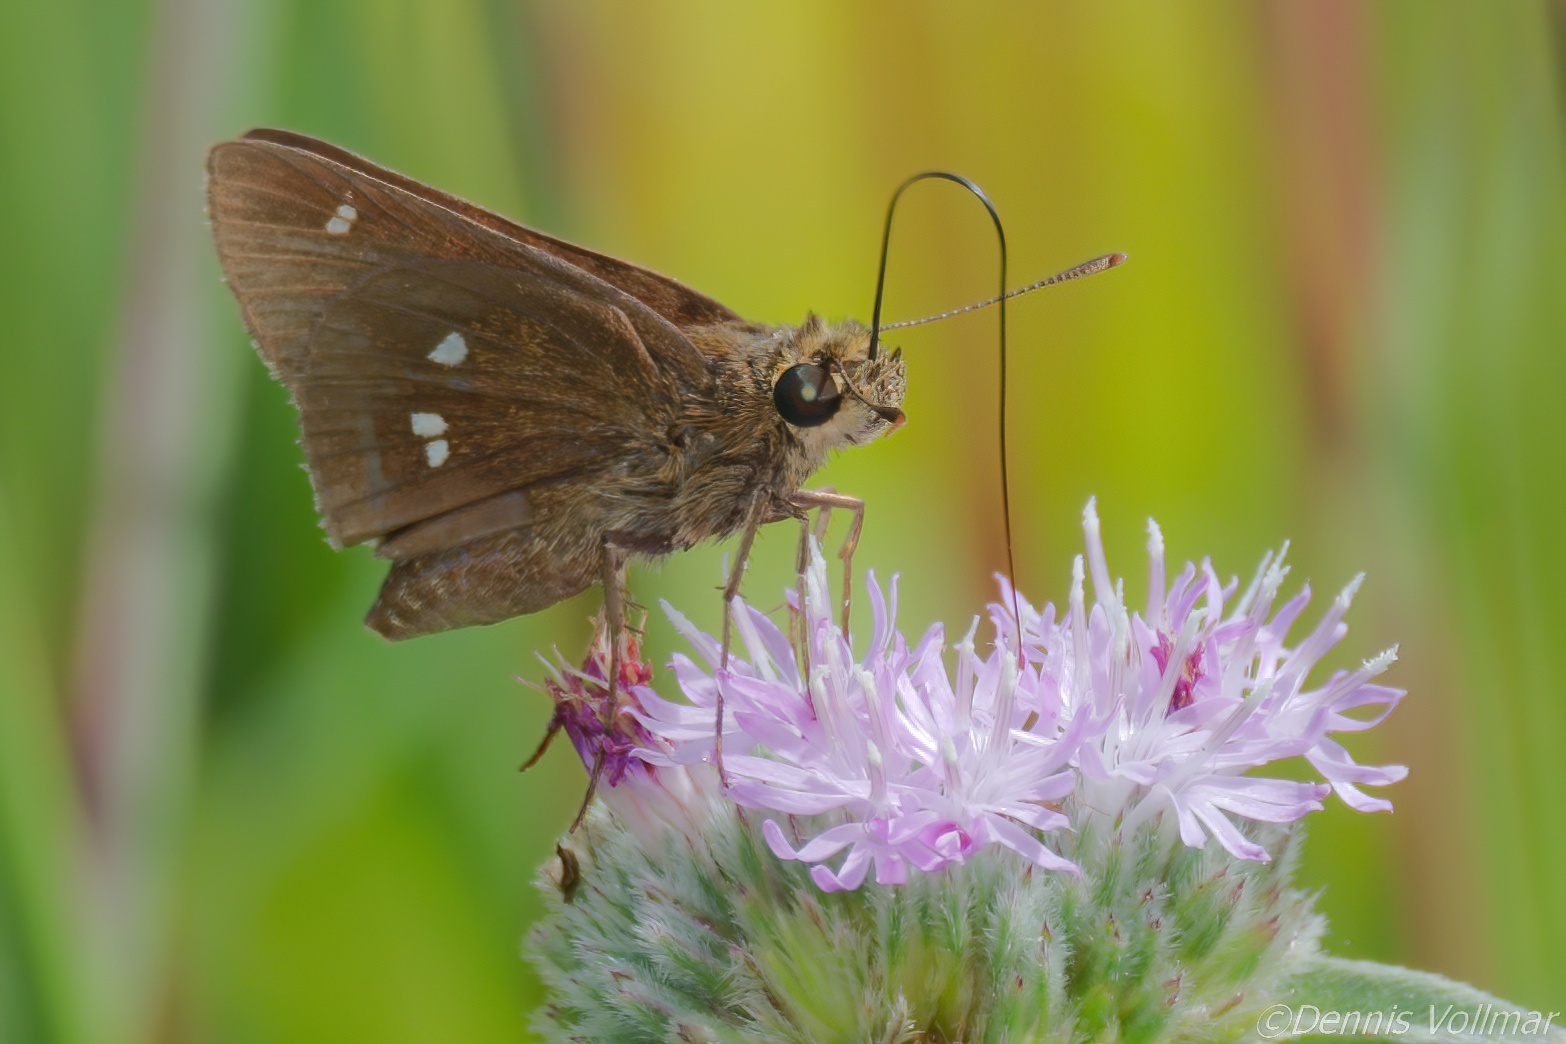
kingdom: Animalia
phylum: Arthropoda
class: Insecta
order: Lepidoptera
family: Hesperiidae
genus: Oligoria
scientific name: Oligoria maculata
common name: Twin-spot skipper
